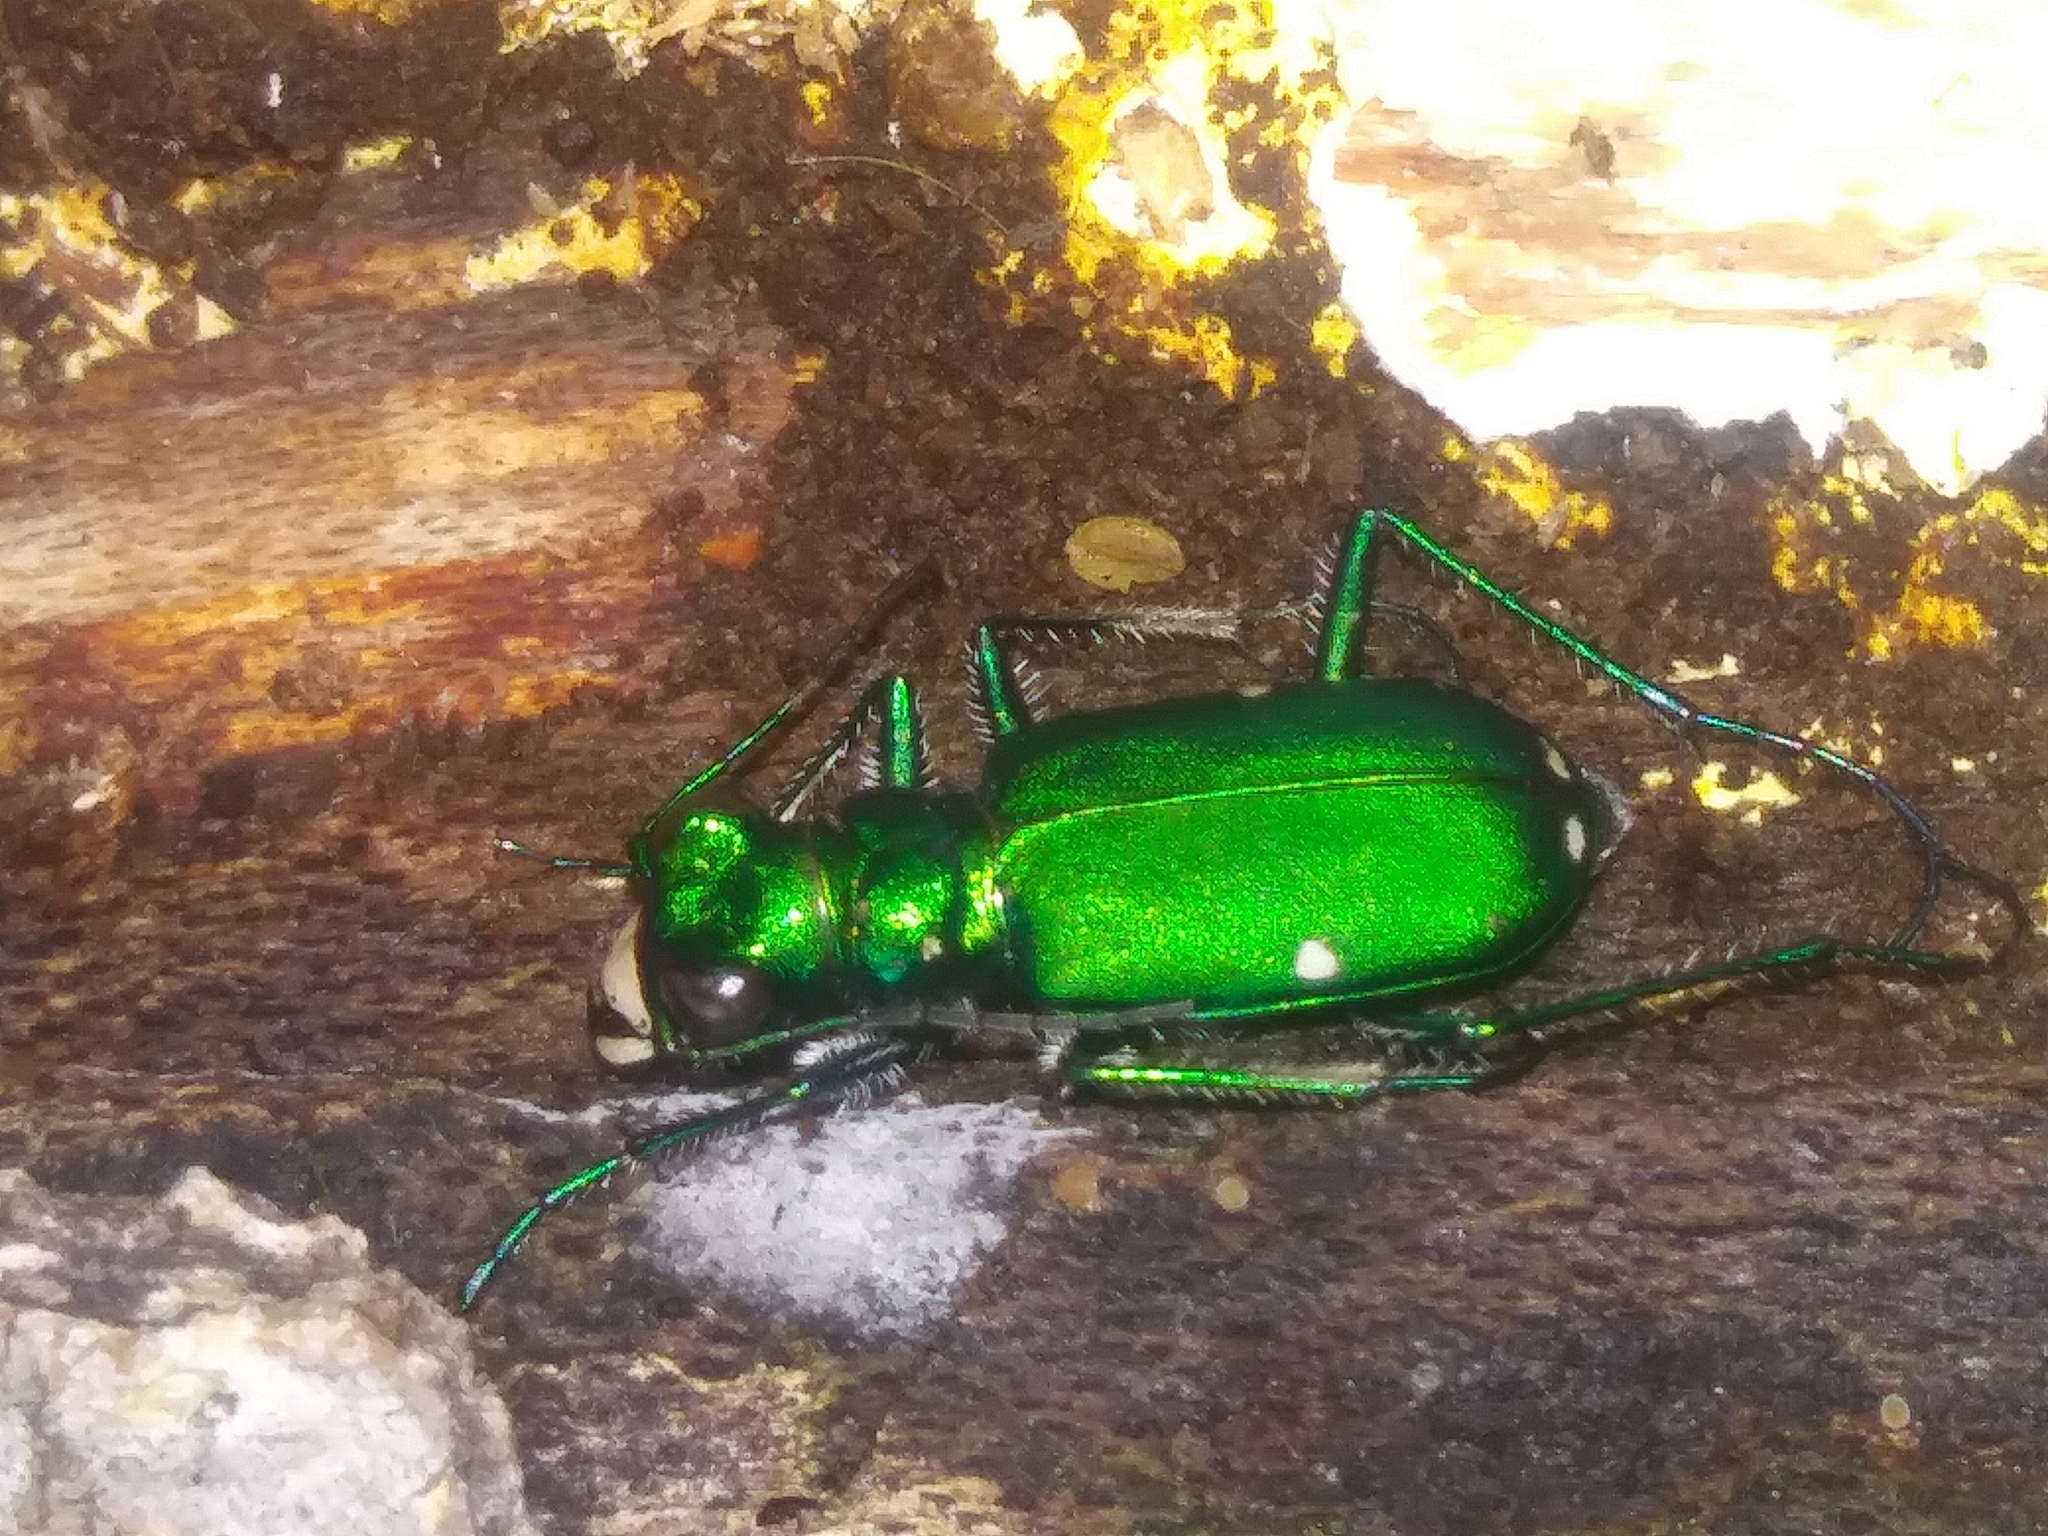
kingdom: Animalia
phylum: Arthropoda
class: Insecta
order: Coleoptera
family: Carabidae
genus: Cicindela
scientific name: Cicindela sexguttata
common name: Six-spotted tiger beetle
